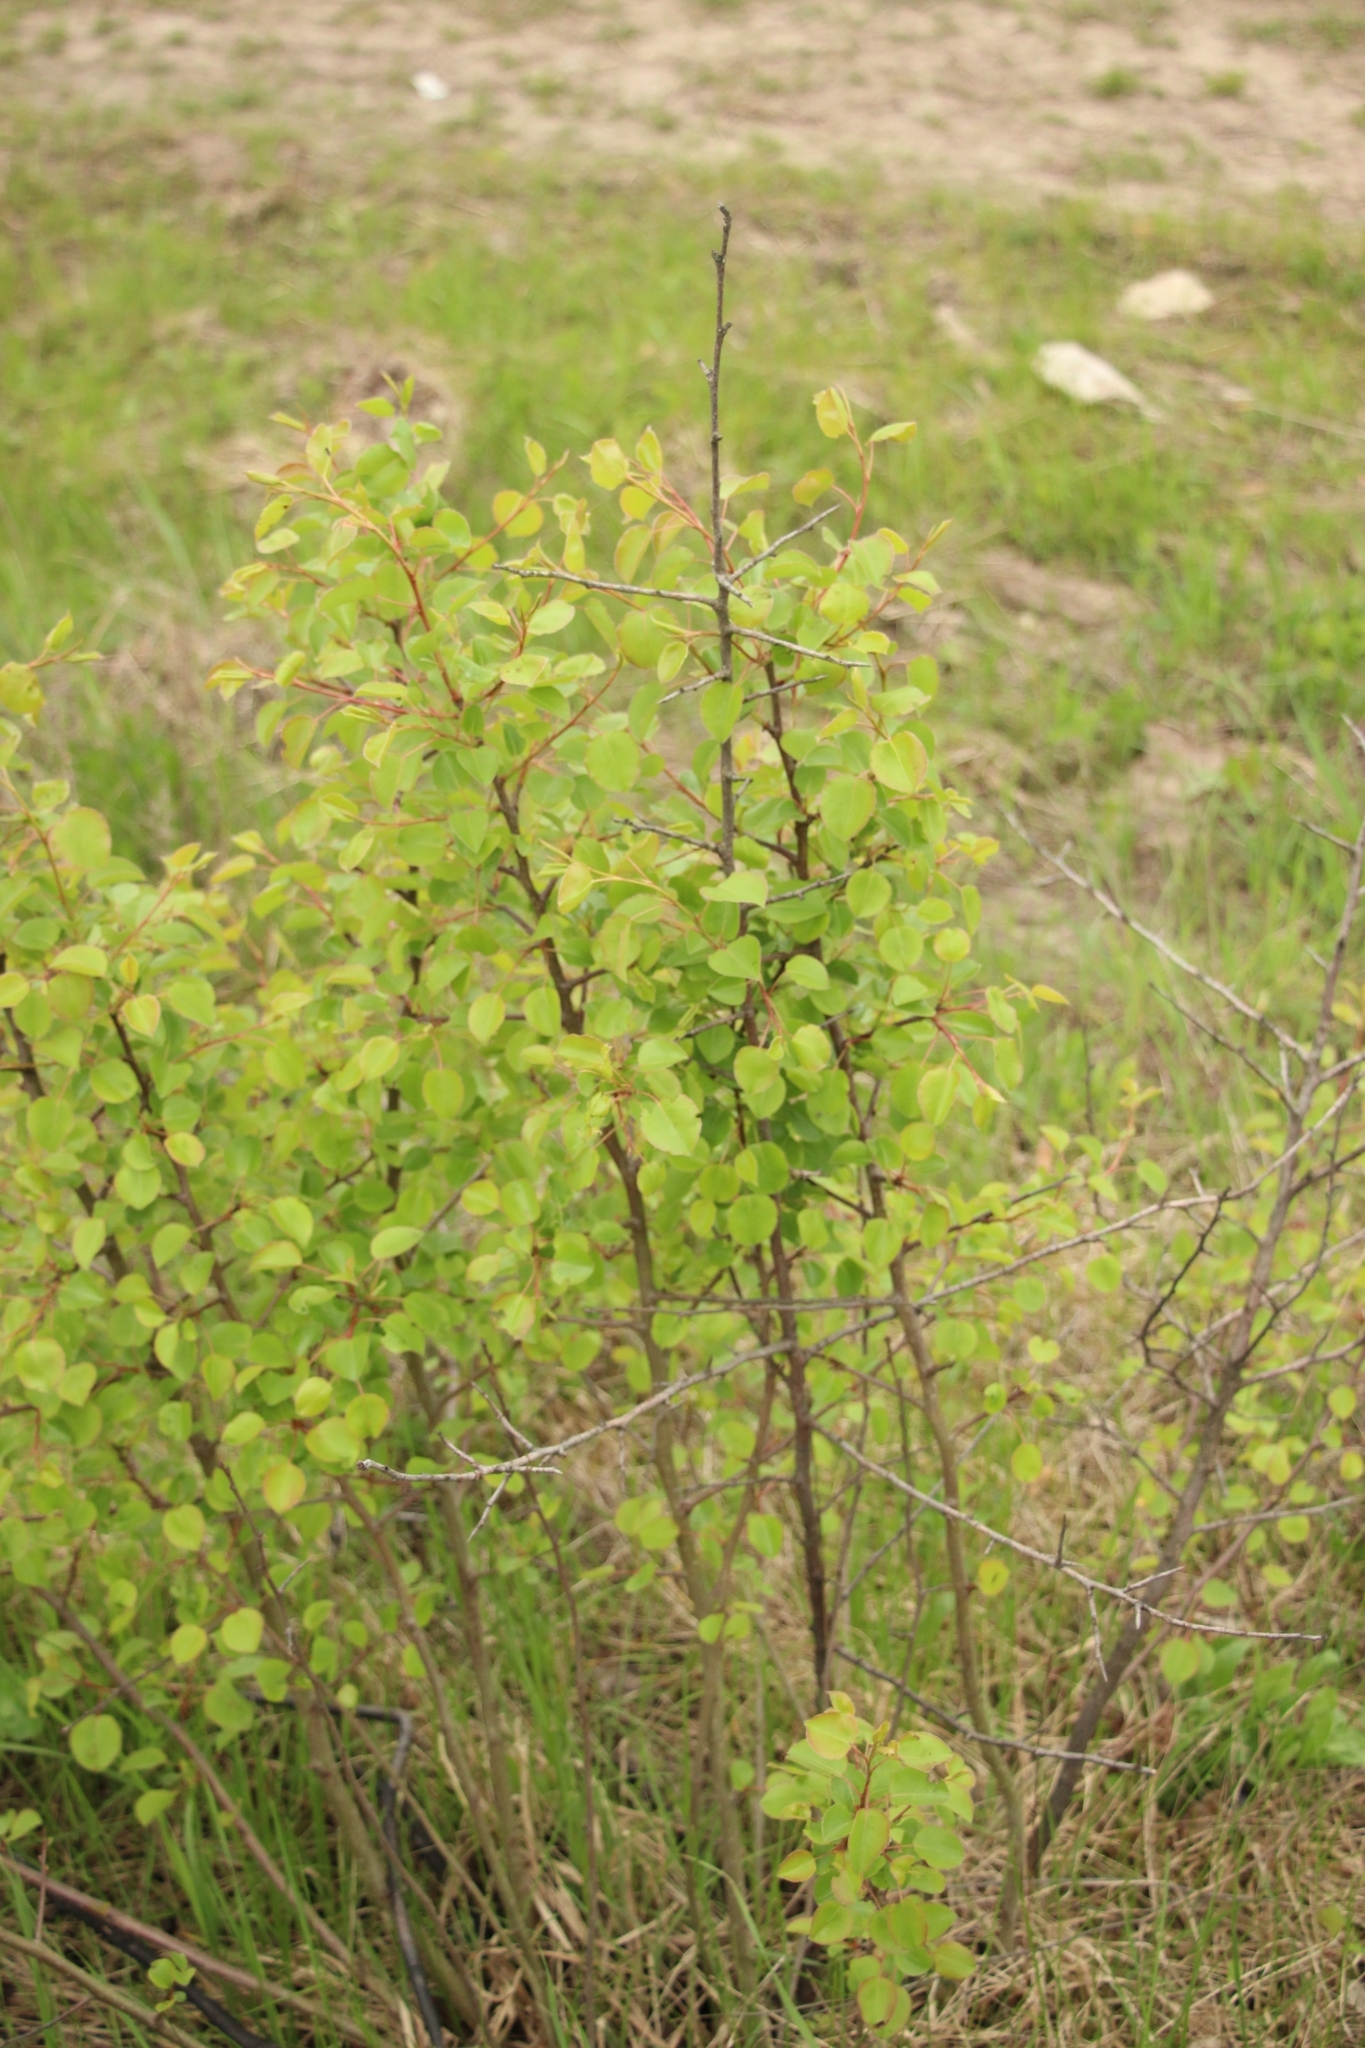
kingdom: Plantae
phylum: Tracheophyta
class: Magnoliopsida
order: Rosales
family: Rosaceae
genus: Pyrus
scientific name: Pyrus communis
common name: Pear
